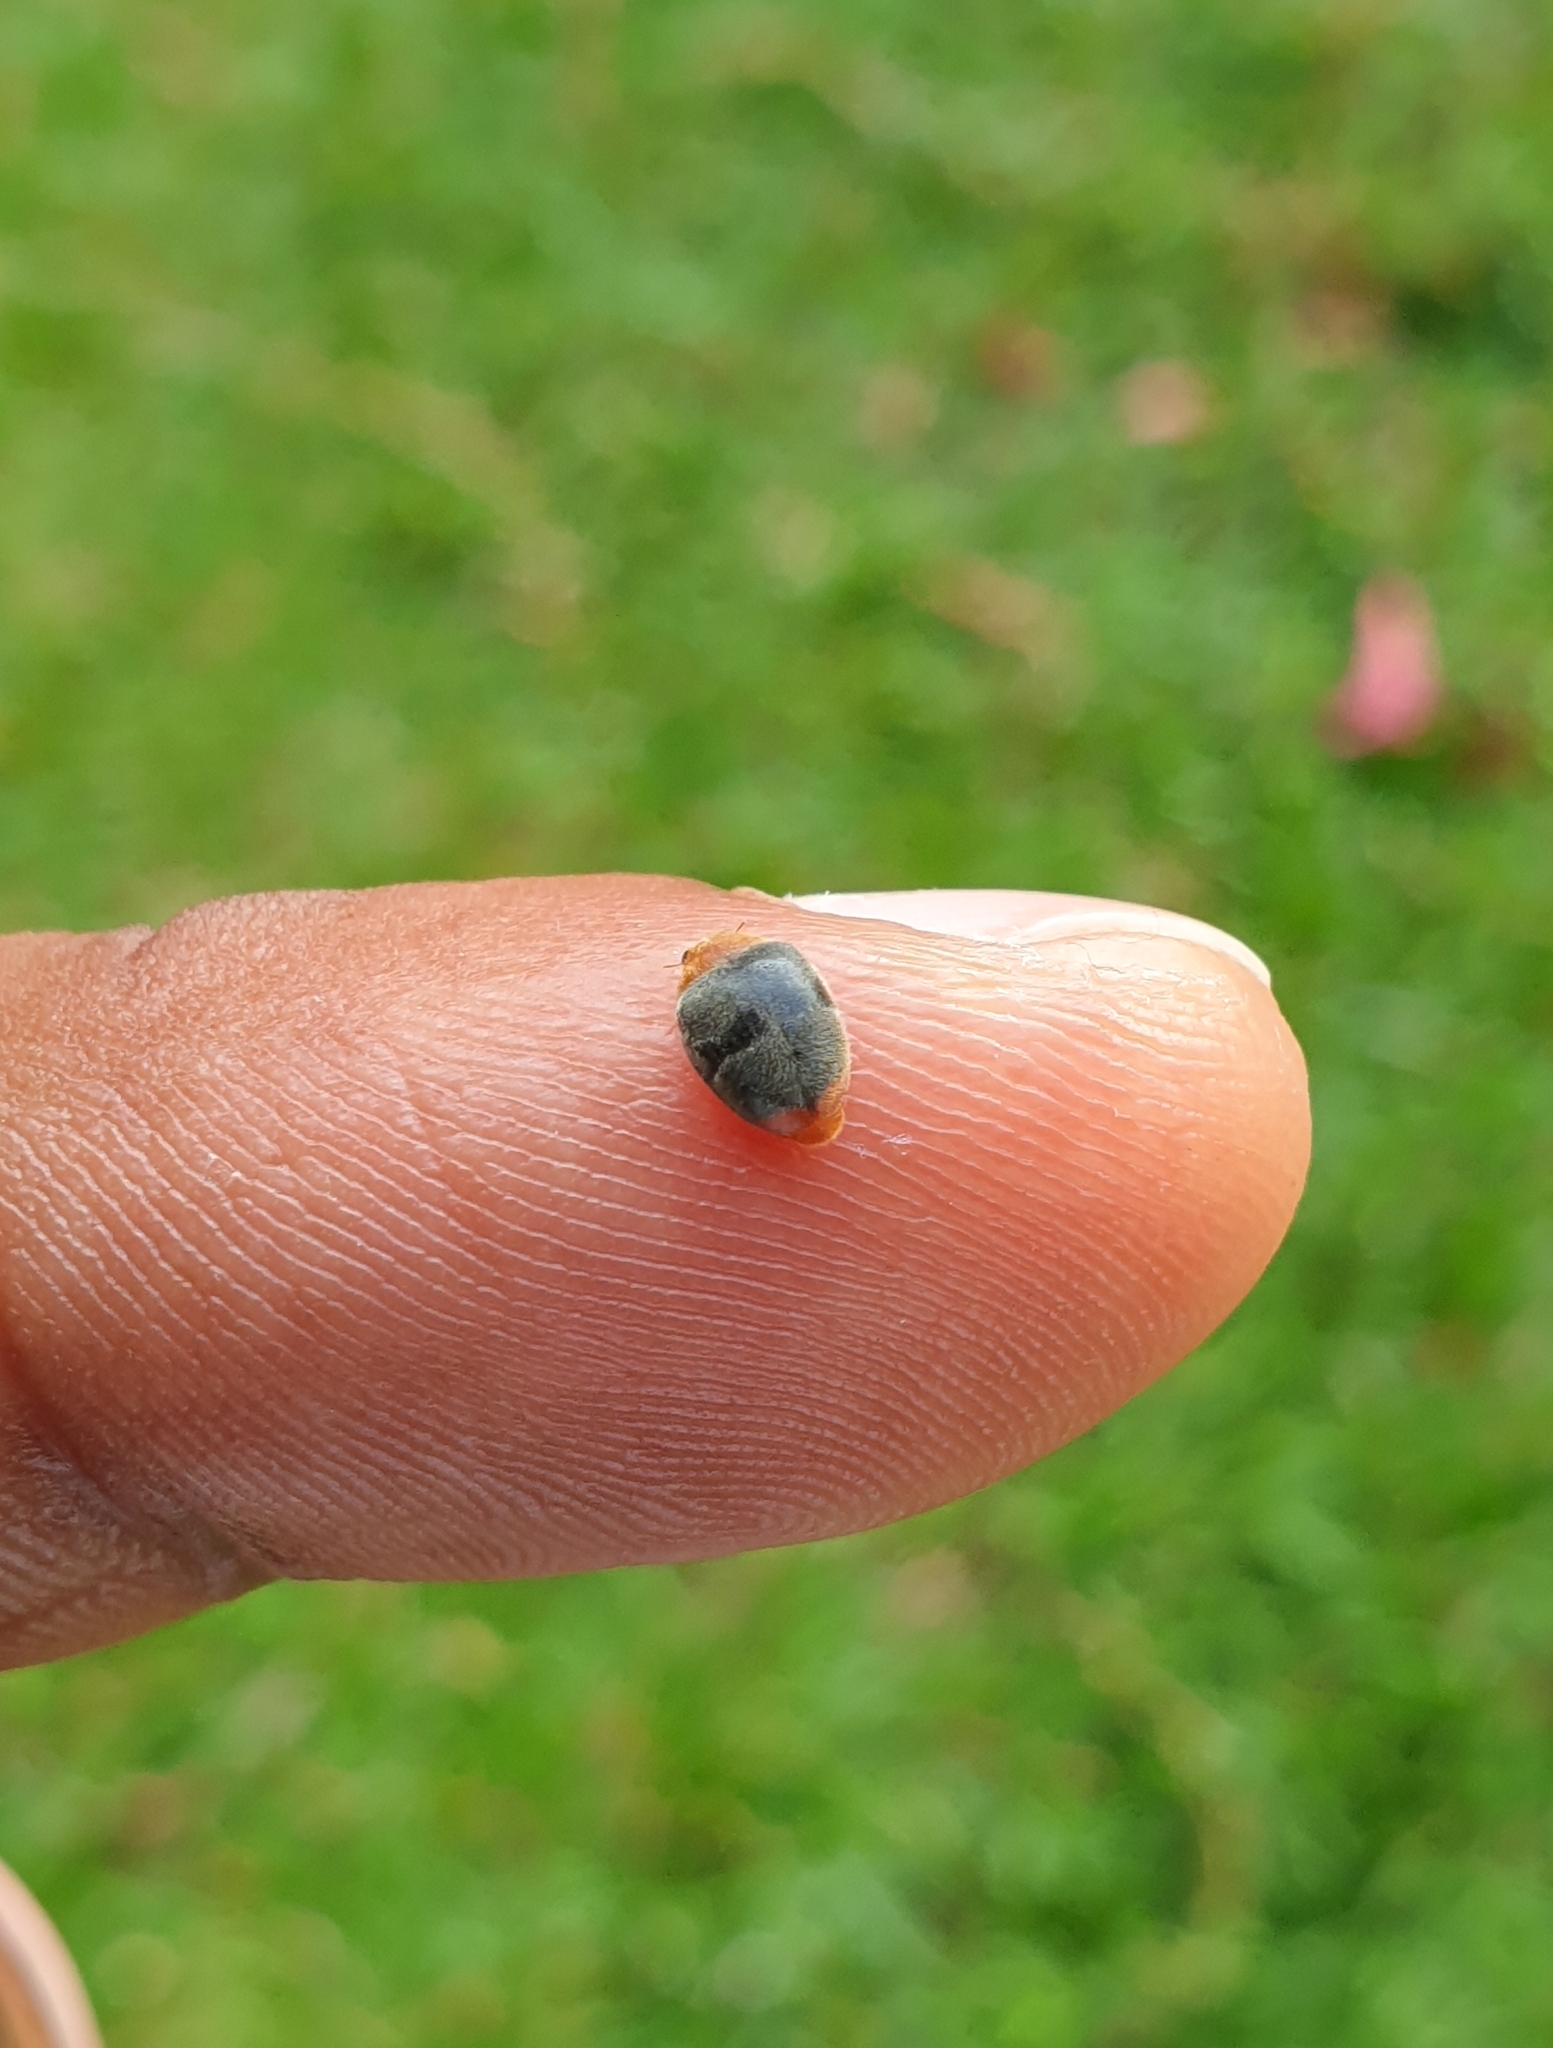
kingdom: Animalia
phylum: Arthropoda
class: Insecta
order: Coleoptera
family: Coccinellidae
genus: Cryptolaemus
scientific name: Cryptolaemus montrouzieri
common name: Mealybug destroyer
